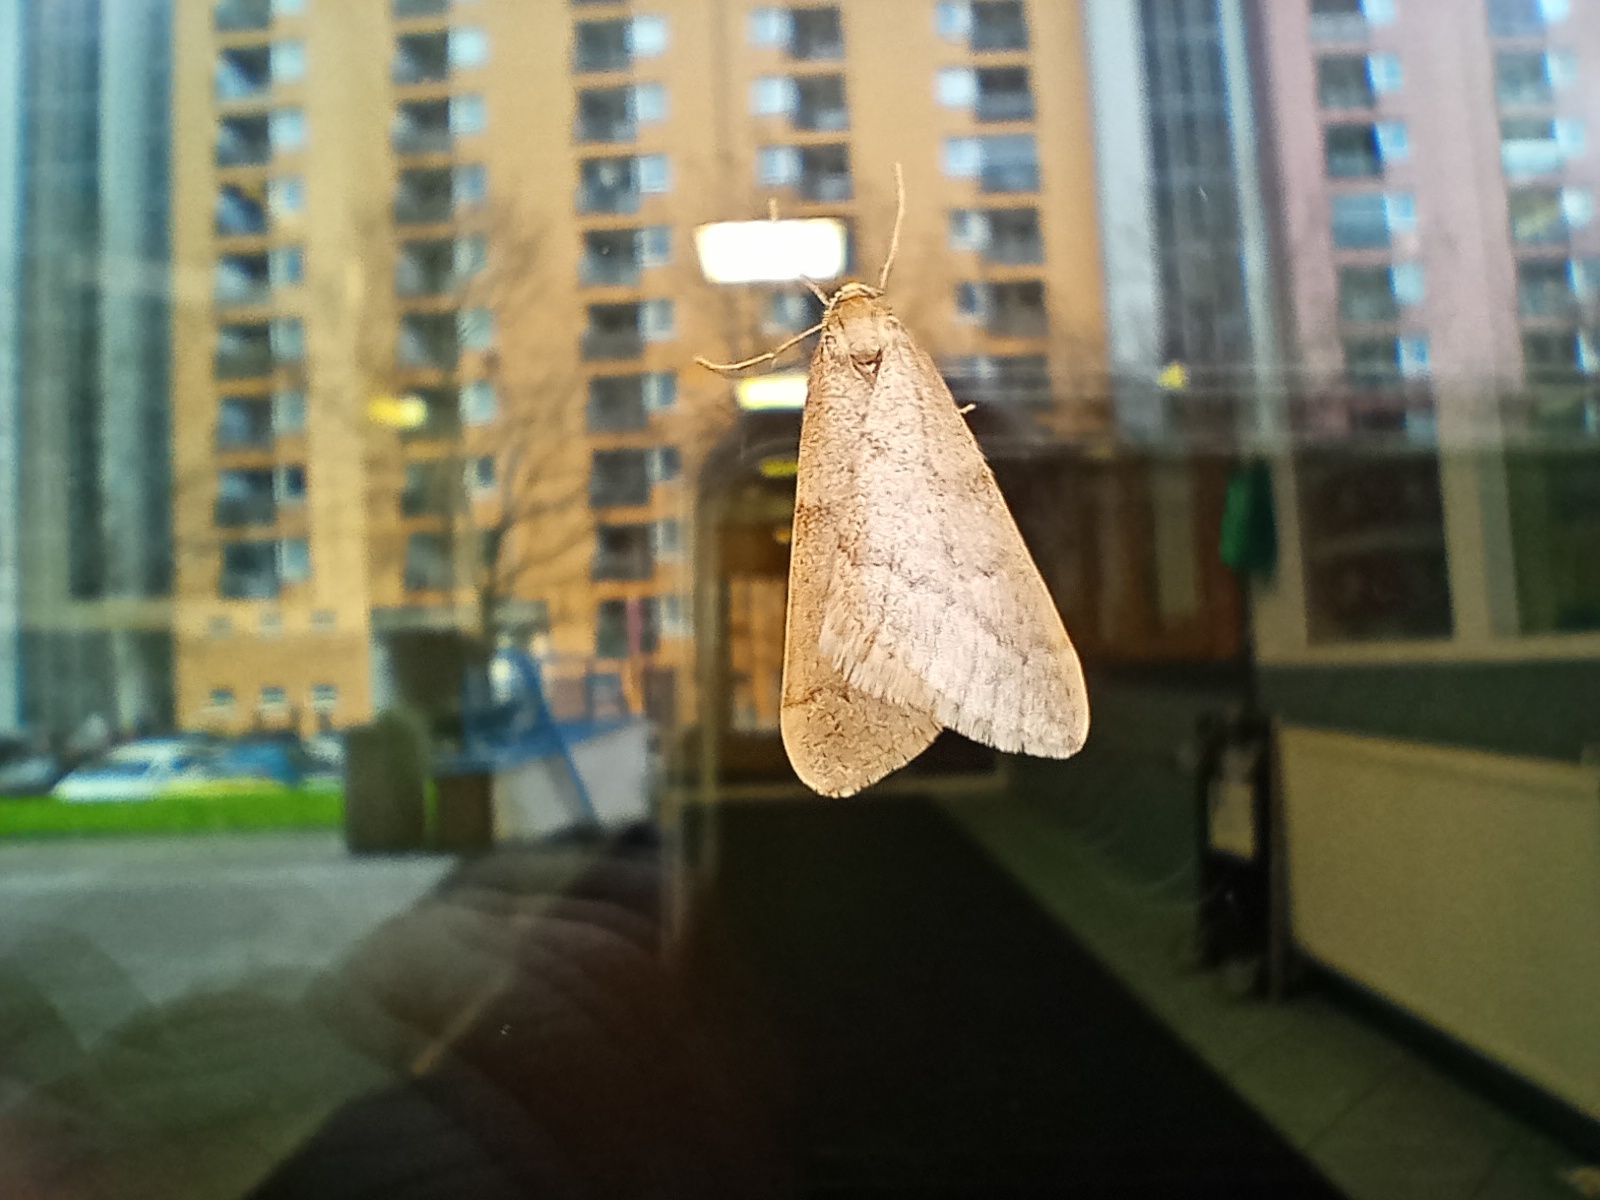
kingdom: Animalia
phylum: Arthropoda
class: Insecta
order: Lepidoptera
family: Geometridae
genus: Alsophila
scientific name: Alsophila aceraria
